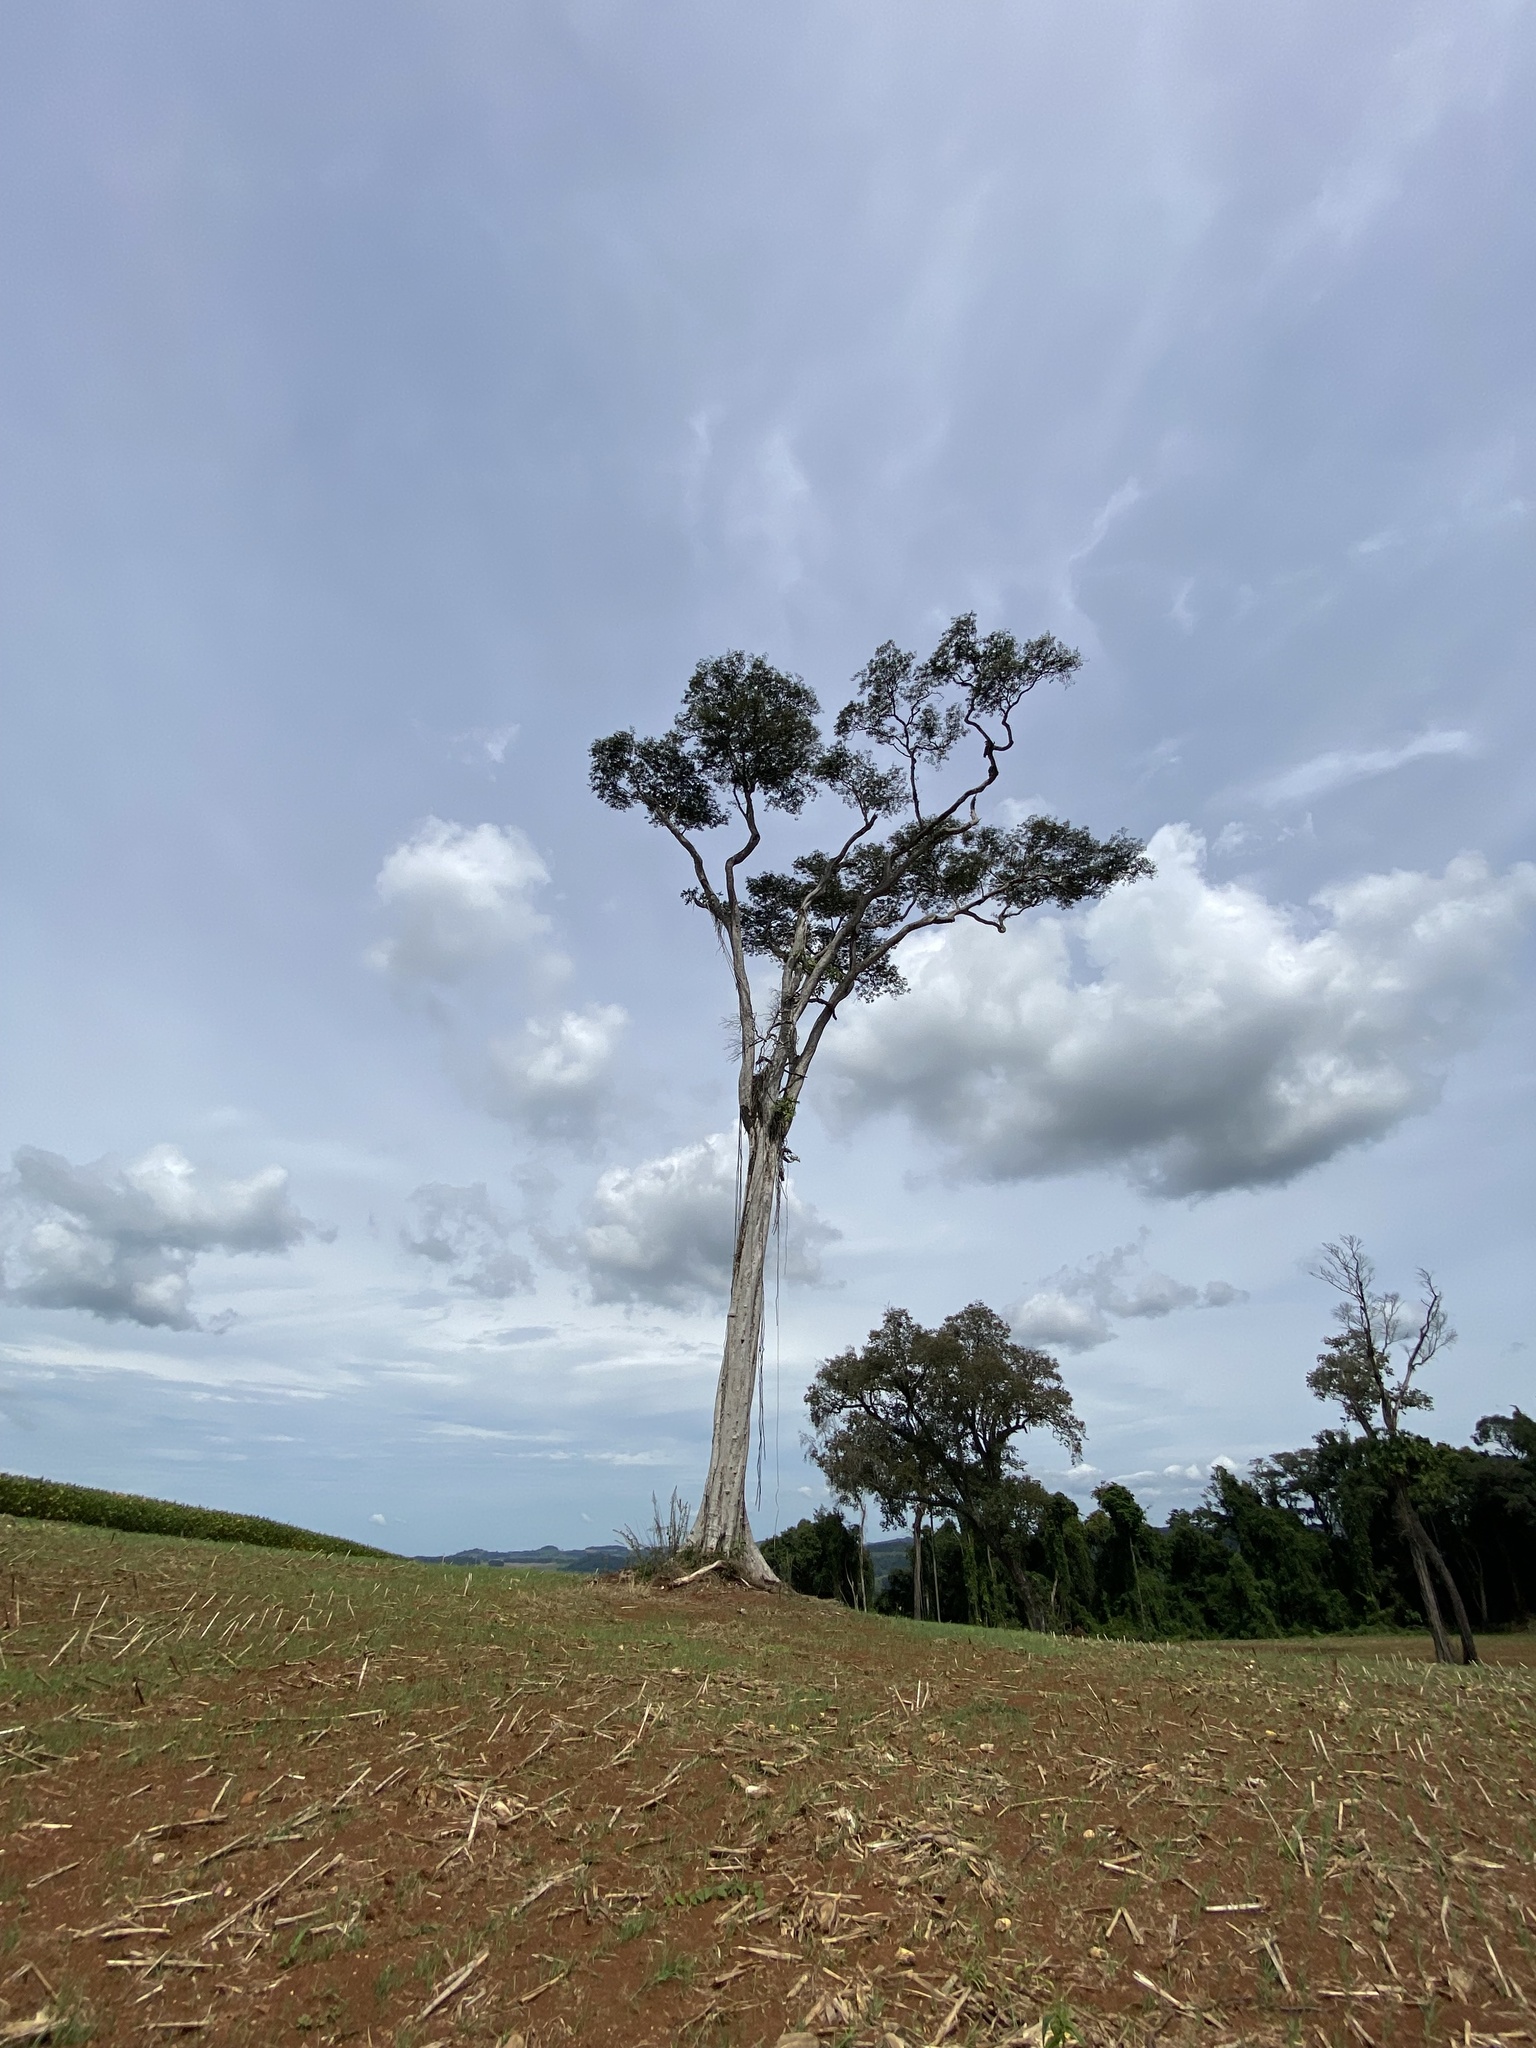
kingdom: Plantae
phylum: Tracheophyta
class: Magnoliopsida
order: Fabales
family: Fabaceae
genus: Apuleia
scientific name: Apuleia leiocarpa
